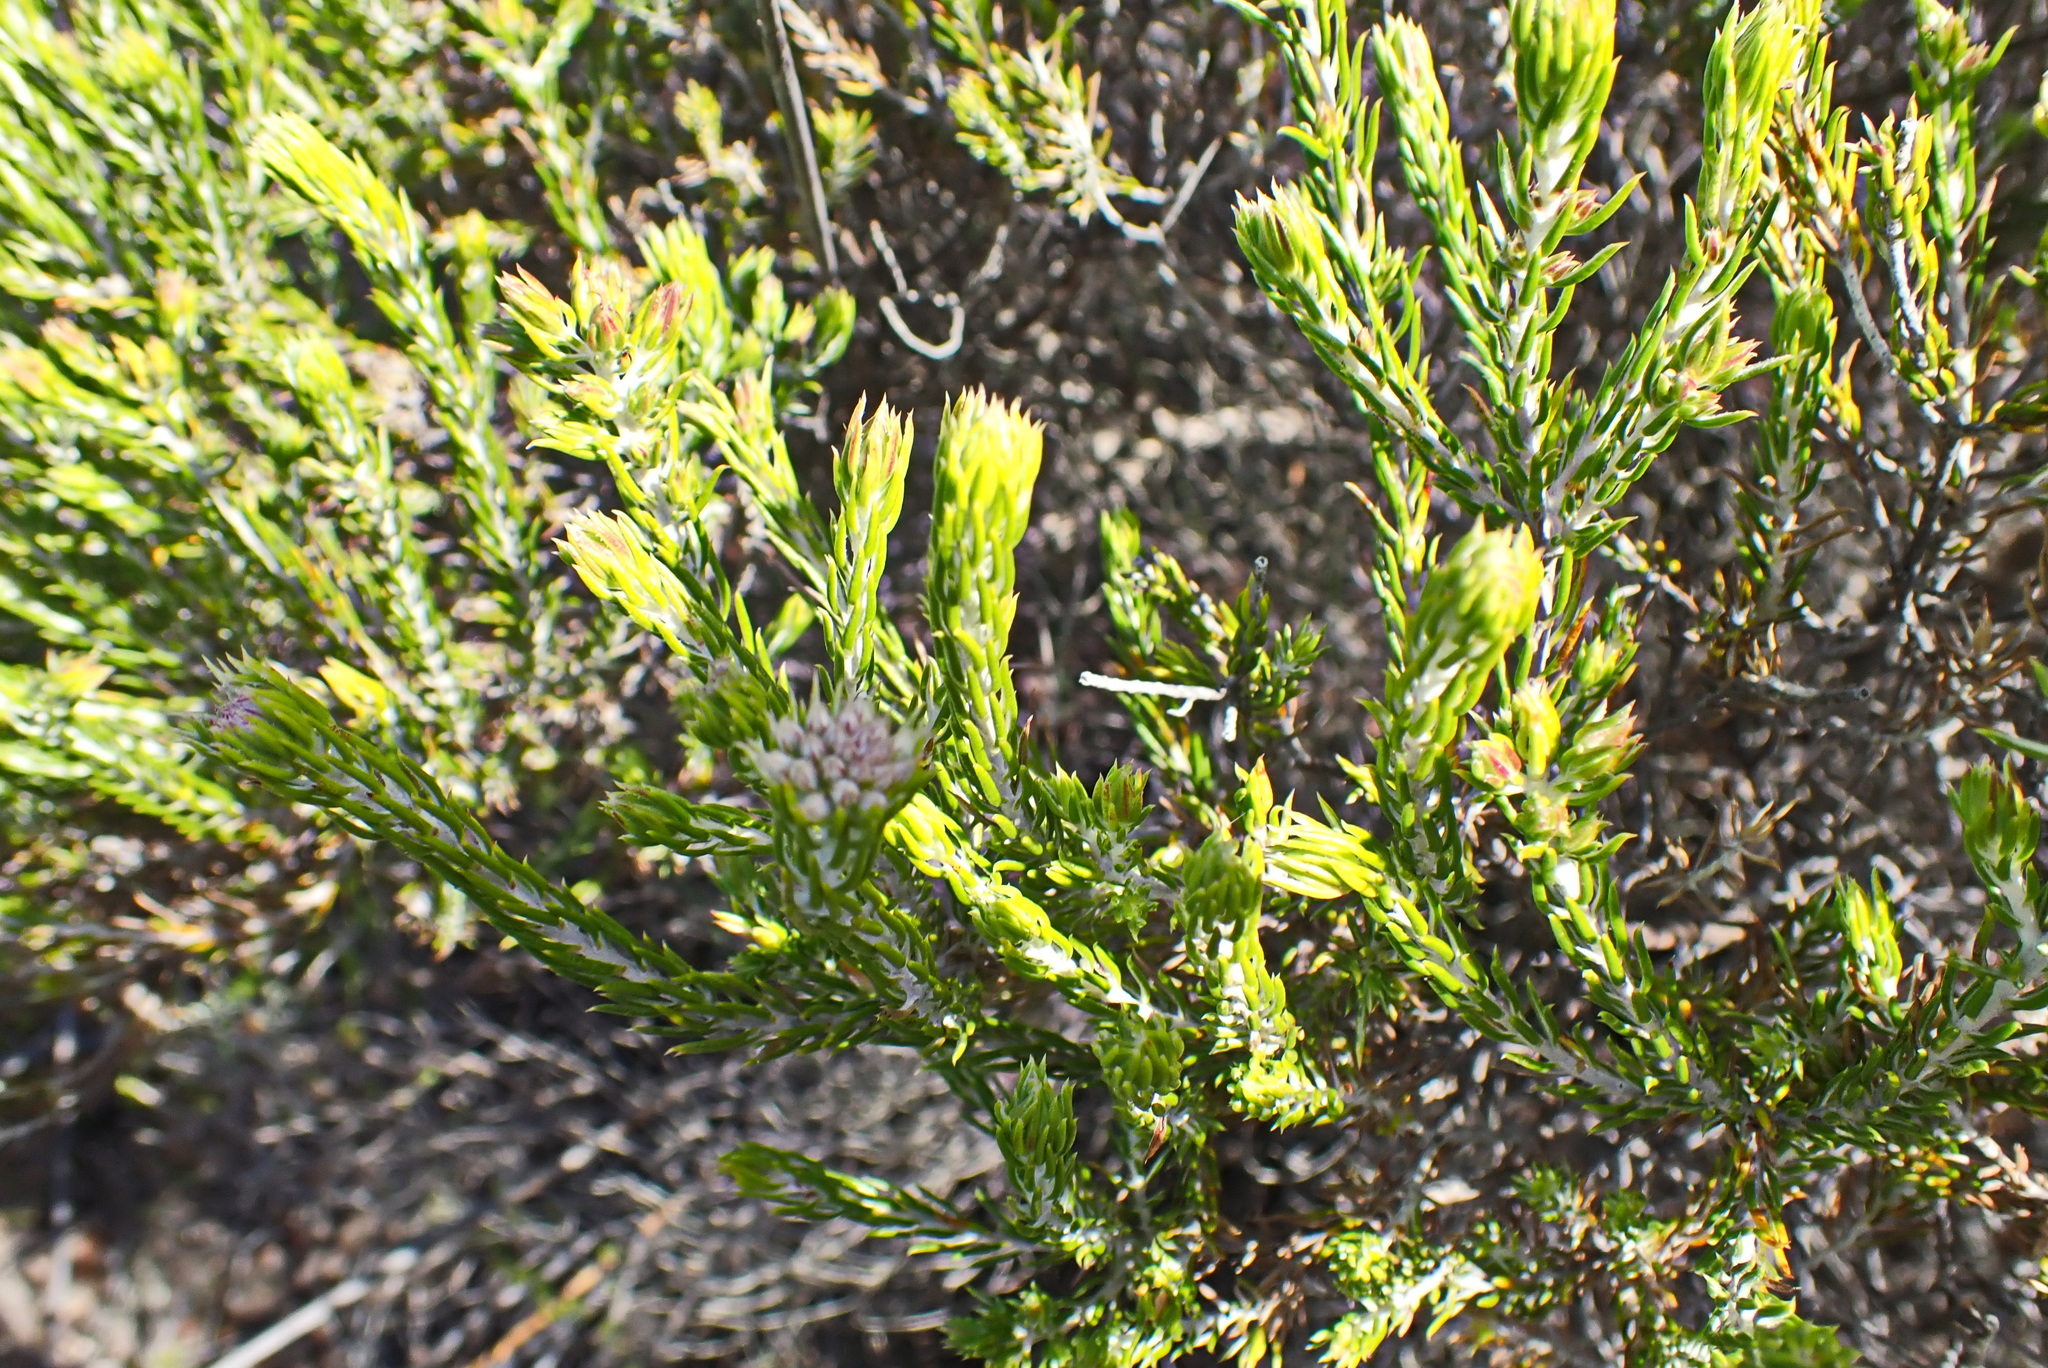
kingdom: Plantae
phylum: Tracheophyta
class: Magnoliopsida
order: Asterales
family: Asteraceae
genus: Metalasia
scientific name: Metalasia pallida
